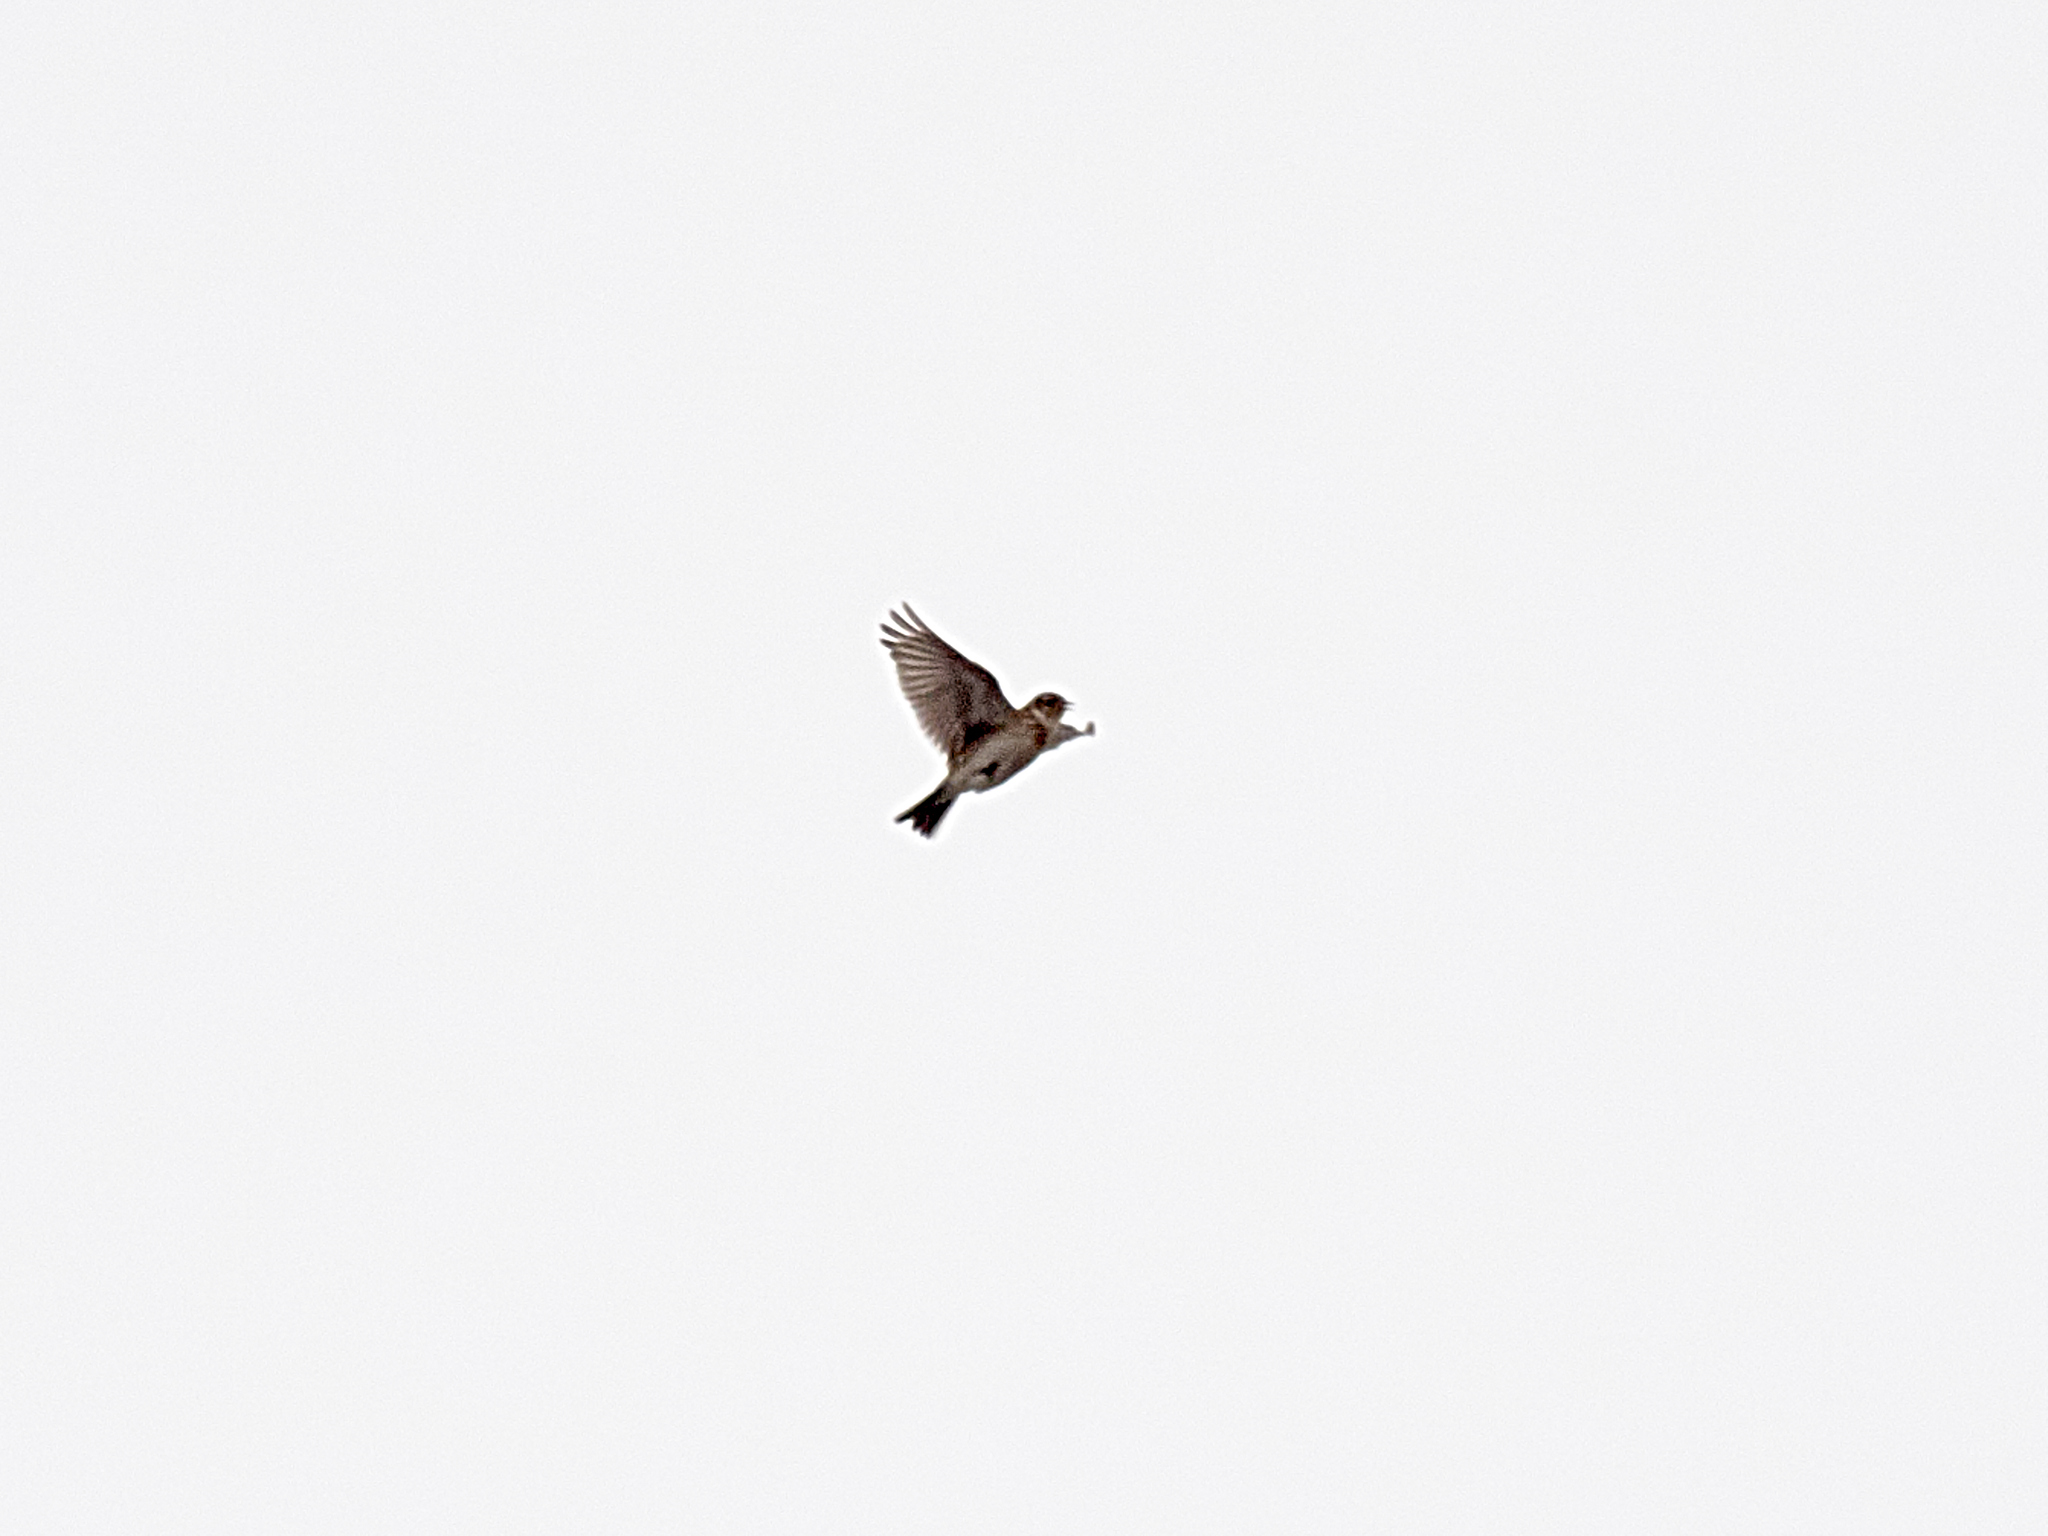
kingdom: Animalia
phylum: Chordata
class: Aves
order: Passeriformes
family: Alaudidae
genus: Alauda
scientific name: Alauda arvensis
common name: Eurasian skylark
